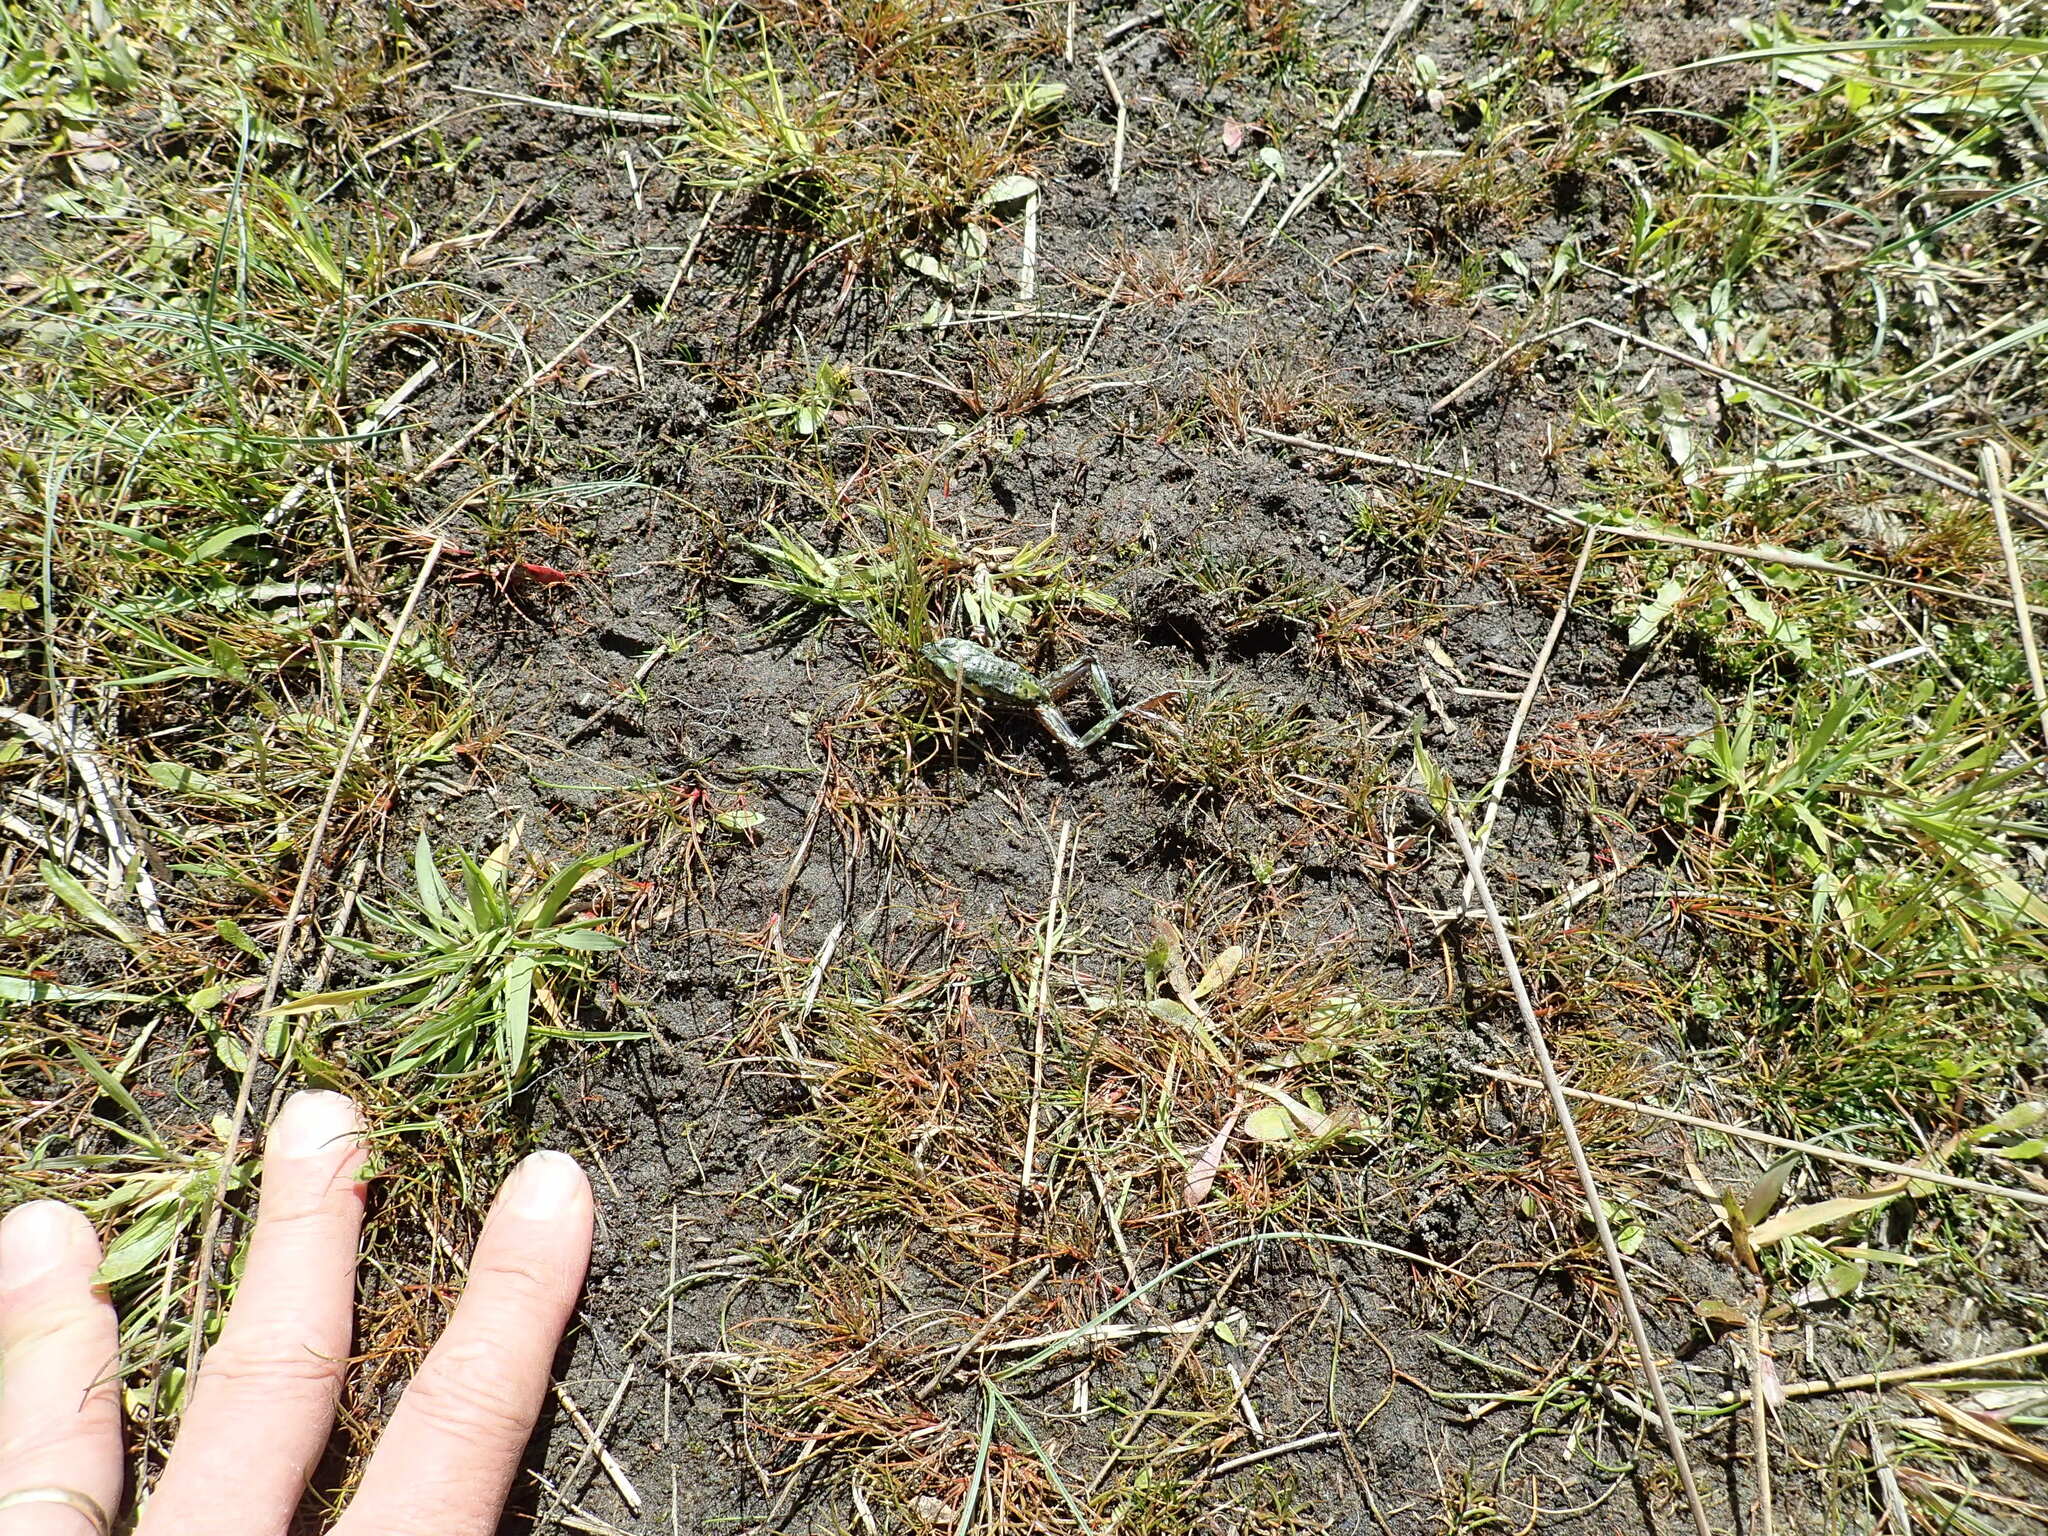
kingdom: Animalia
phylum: Chordata
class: Amphibia
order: Anura
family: Pelodryadidae
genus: Ranoidea
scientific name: Ranoidea raniformis
